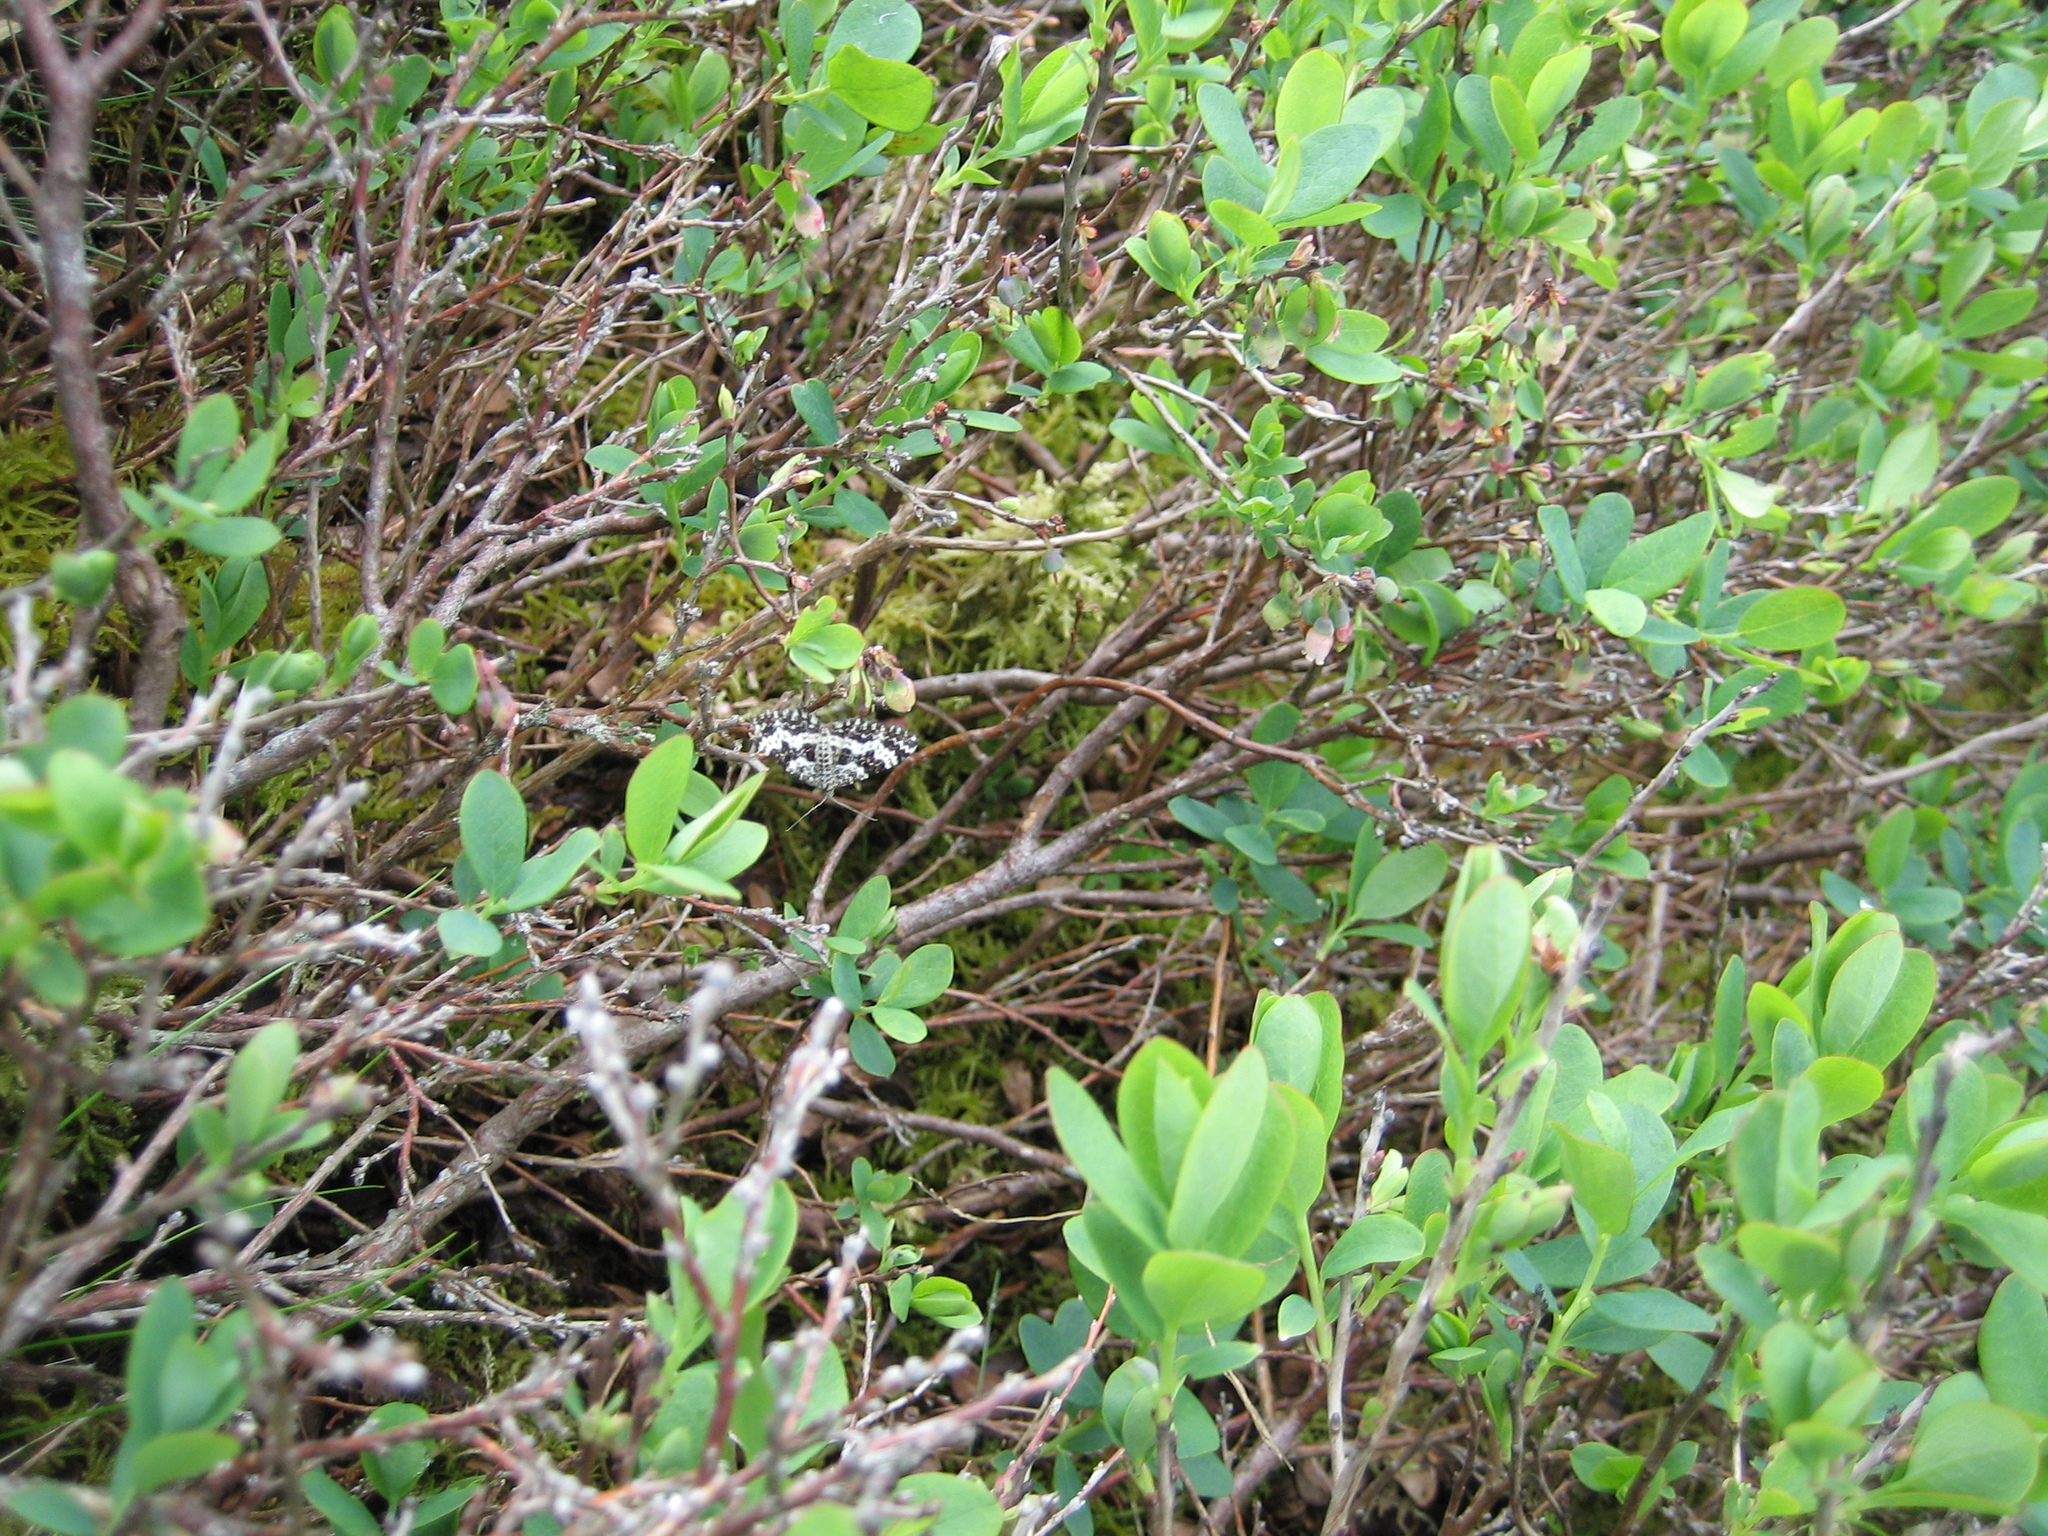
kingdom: Animalia
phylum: Arthropoda
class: Insecta
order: Lepidoptera
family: Geometridae
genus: Epirrhoe
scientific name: Epirrhoe tristata
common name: Small argent & sable
